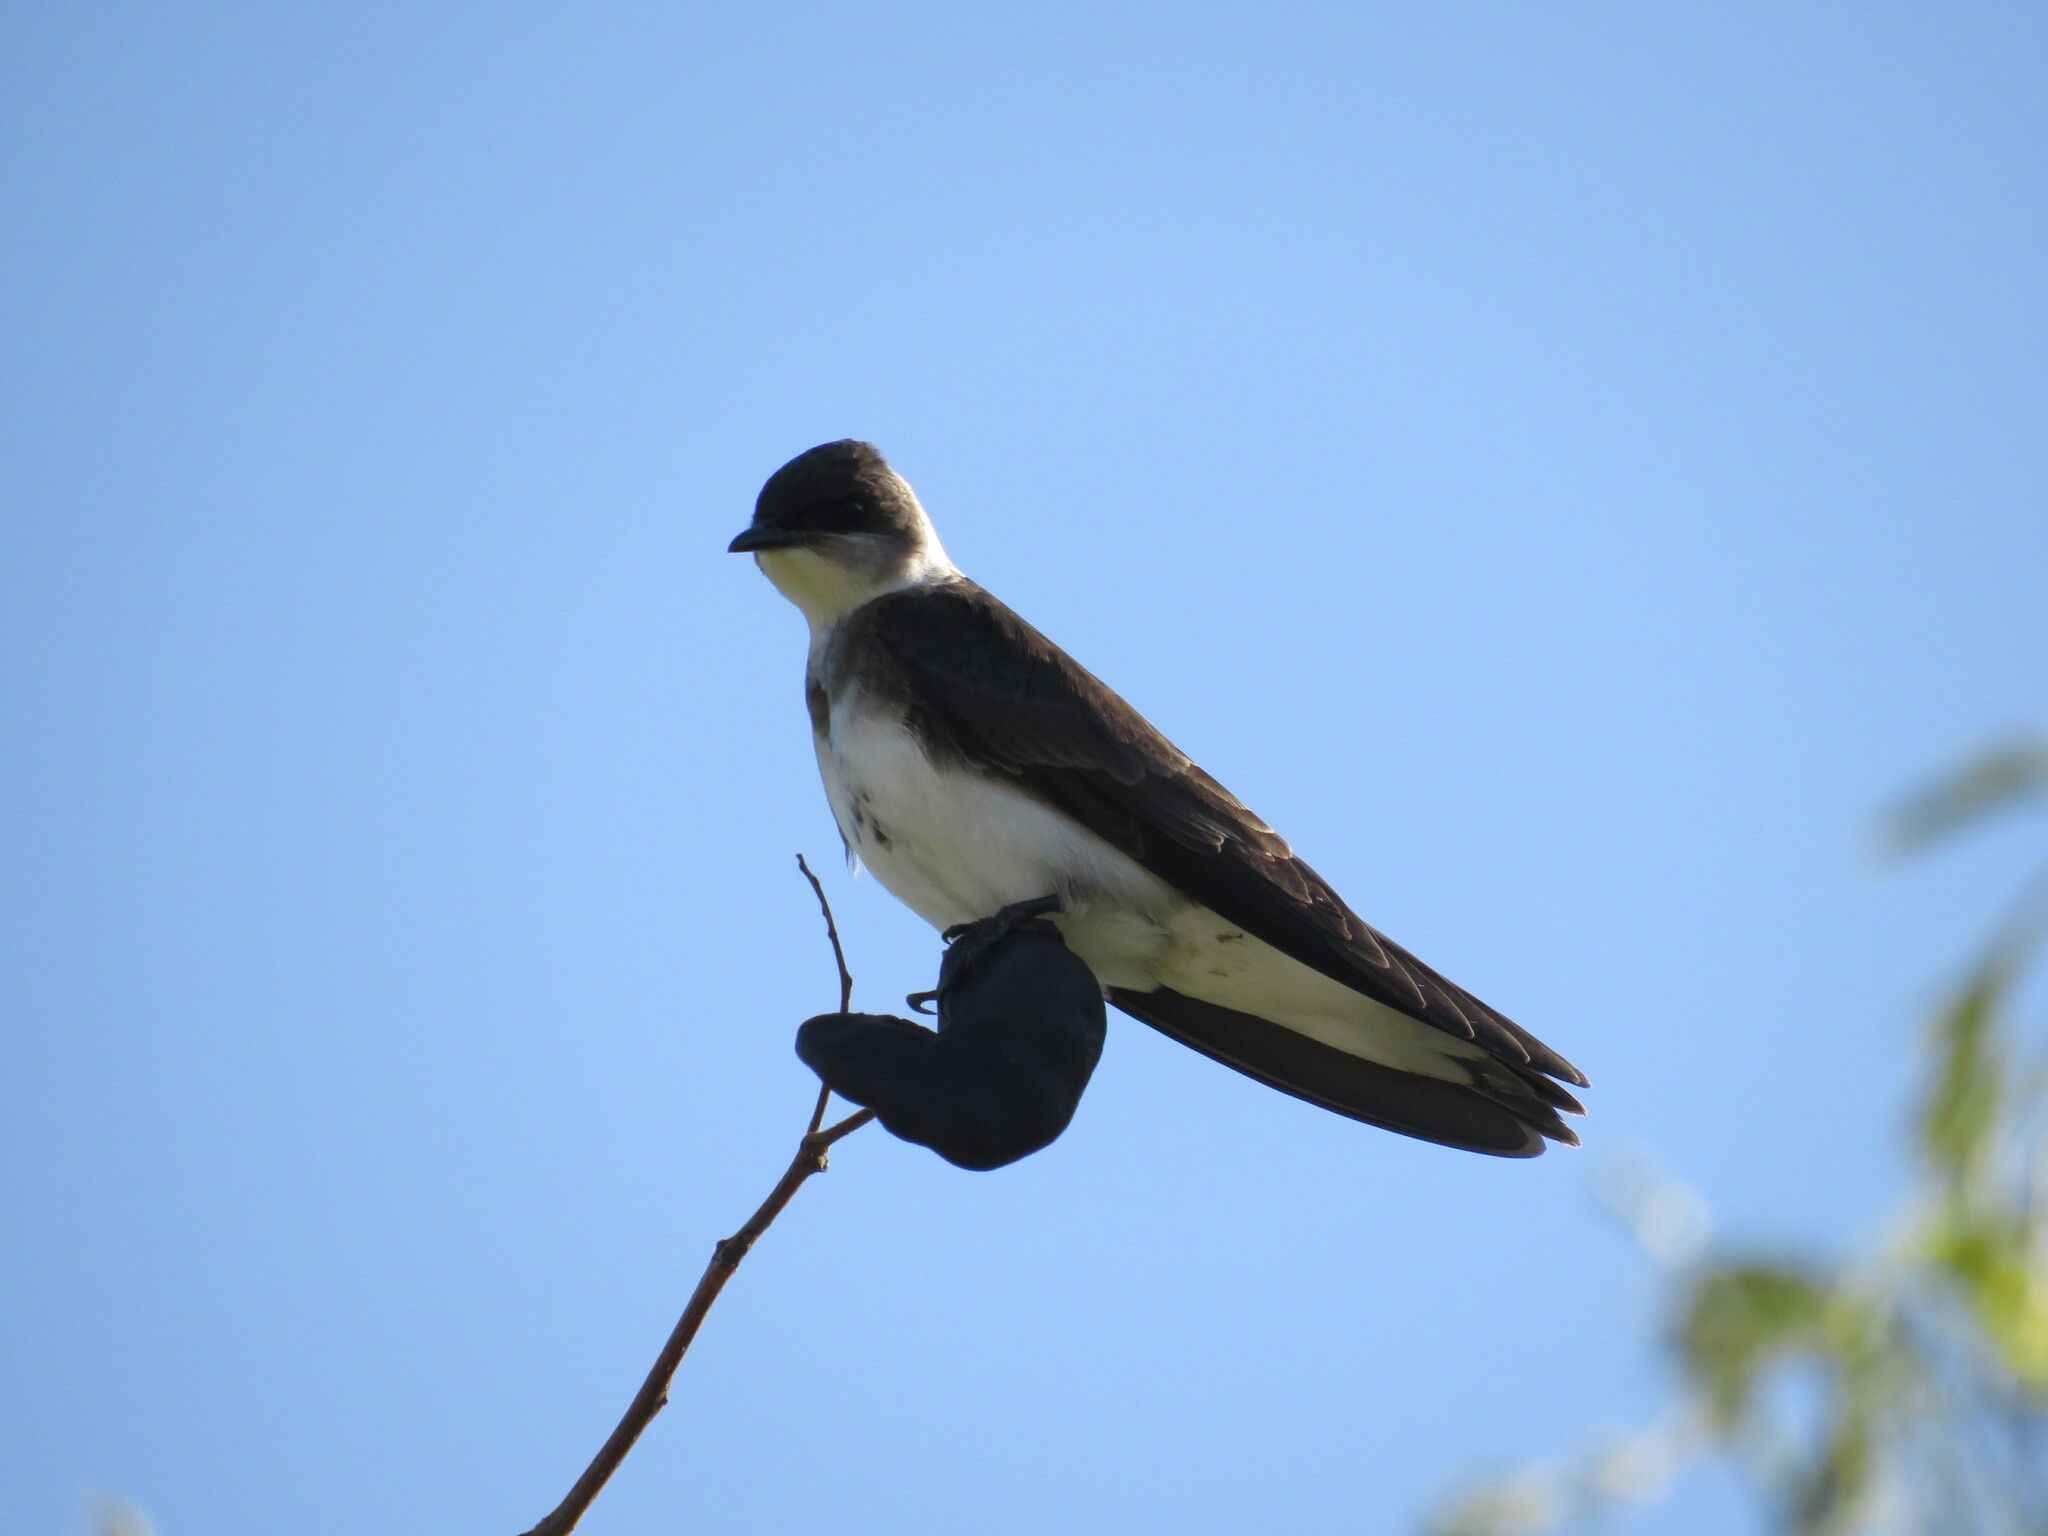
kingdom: Animalia
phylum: Chordata
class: Aves
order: Passeriformes
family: Hirundinidae
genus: Progne
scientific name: Progne tapera
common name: Brown-chested martin
